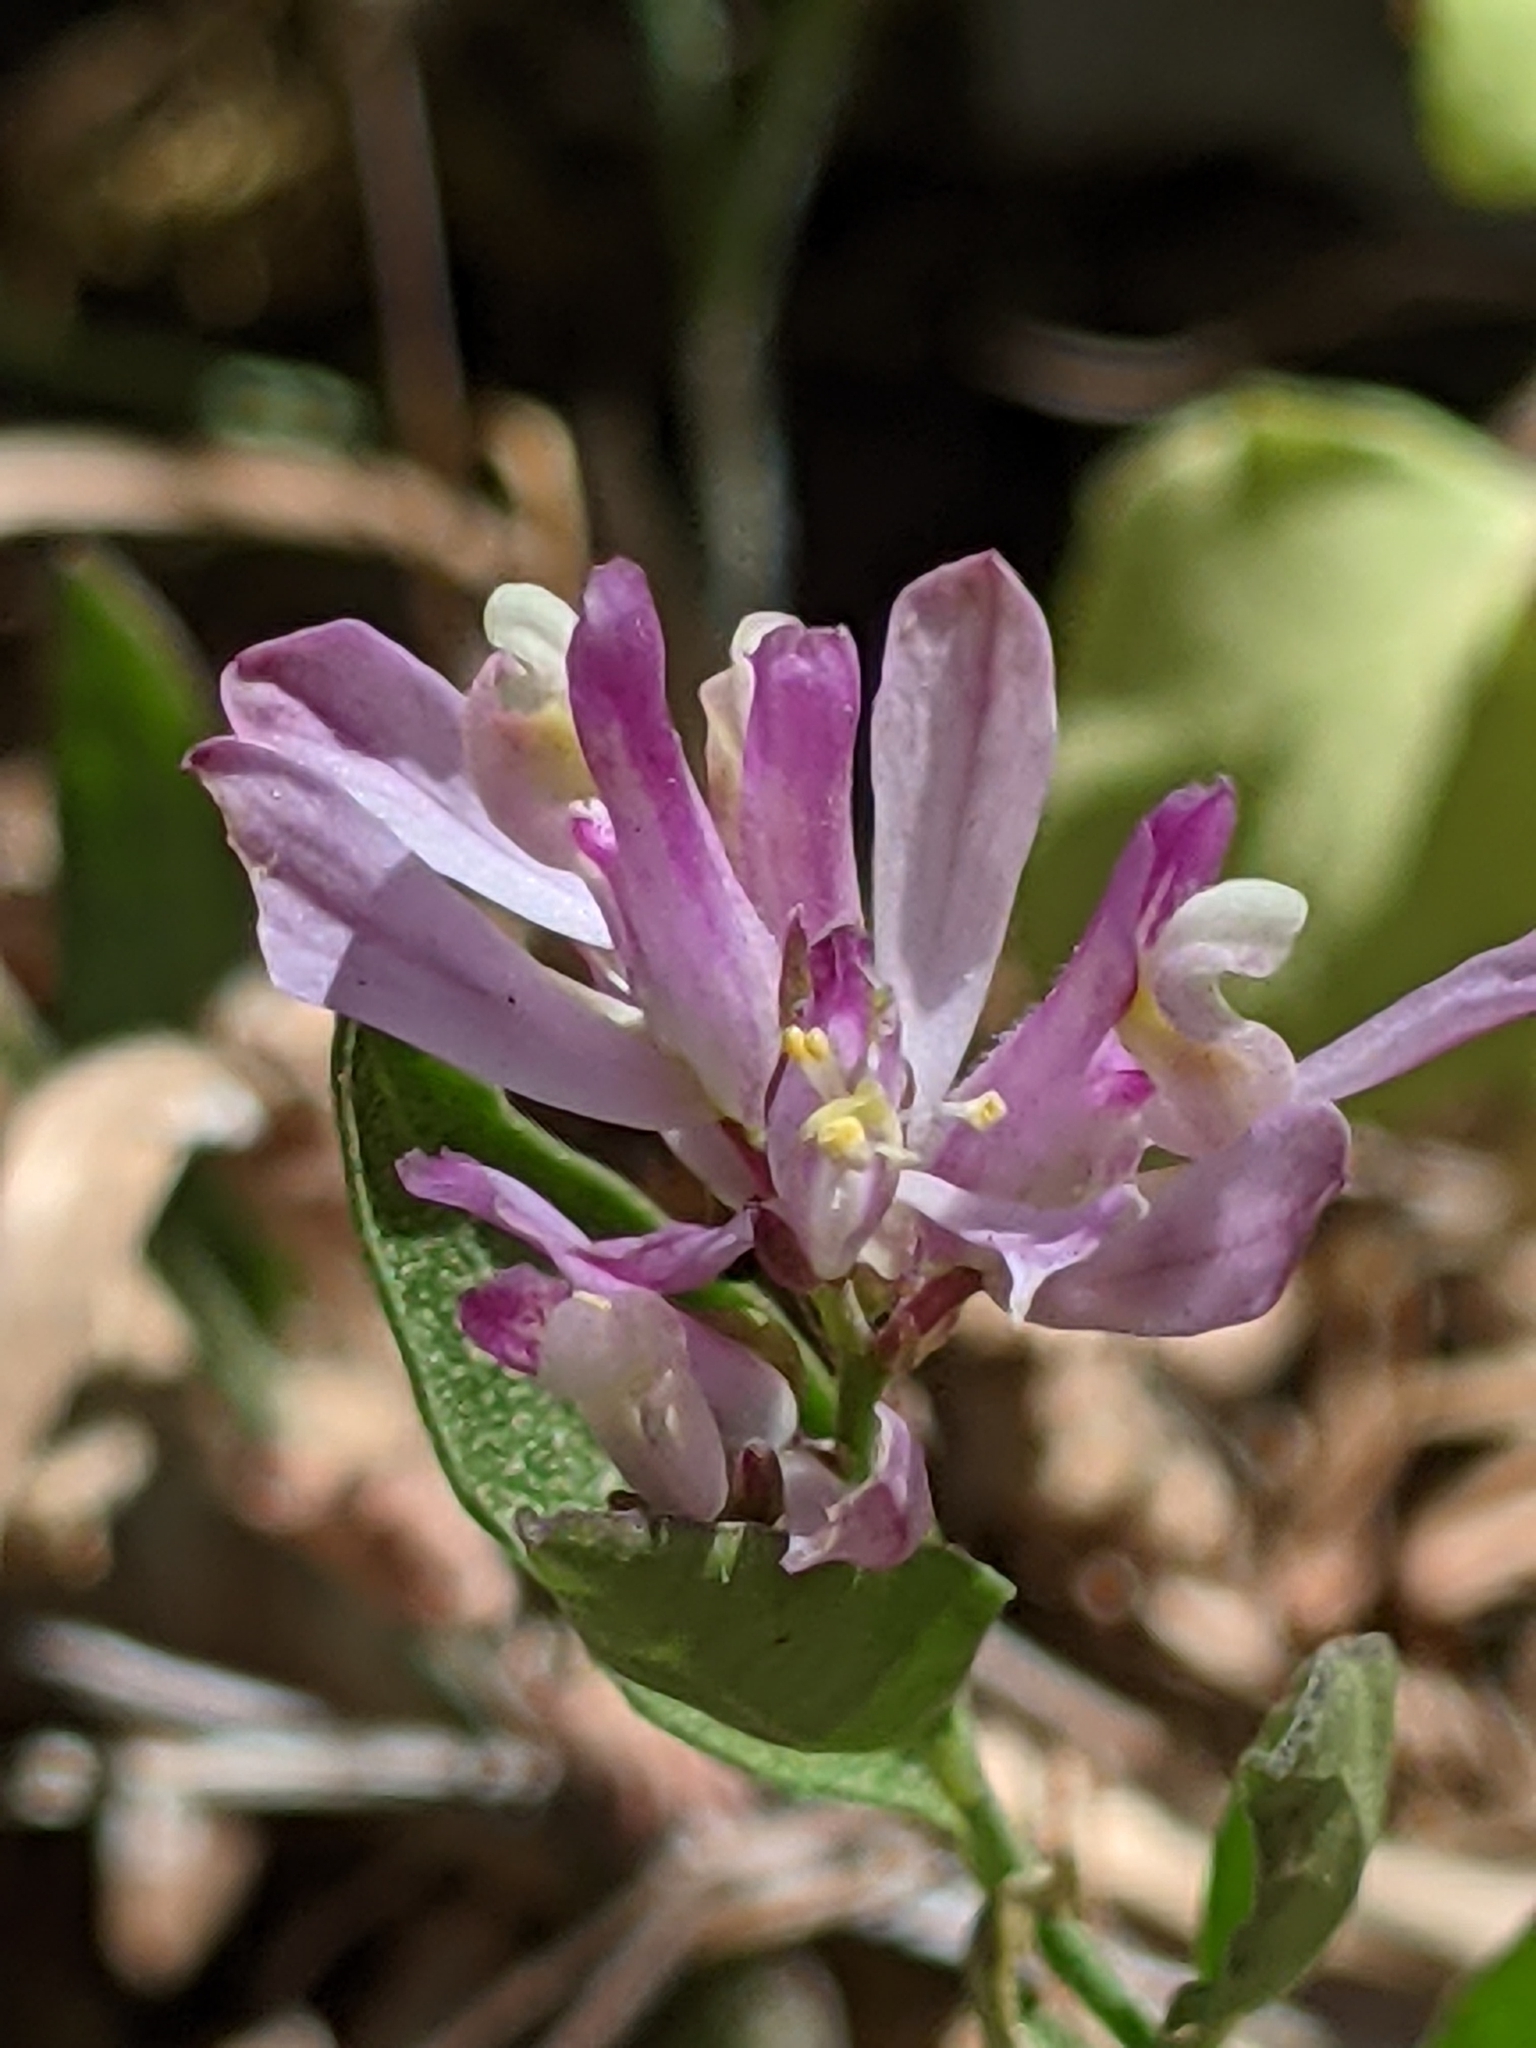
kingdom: Plantae
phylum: Tracheophyta
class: Magnoliopsida
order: Fabales
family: Polygalaceae
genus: Rhinotropis
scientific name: Rhinotropis californica
